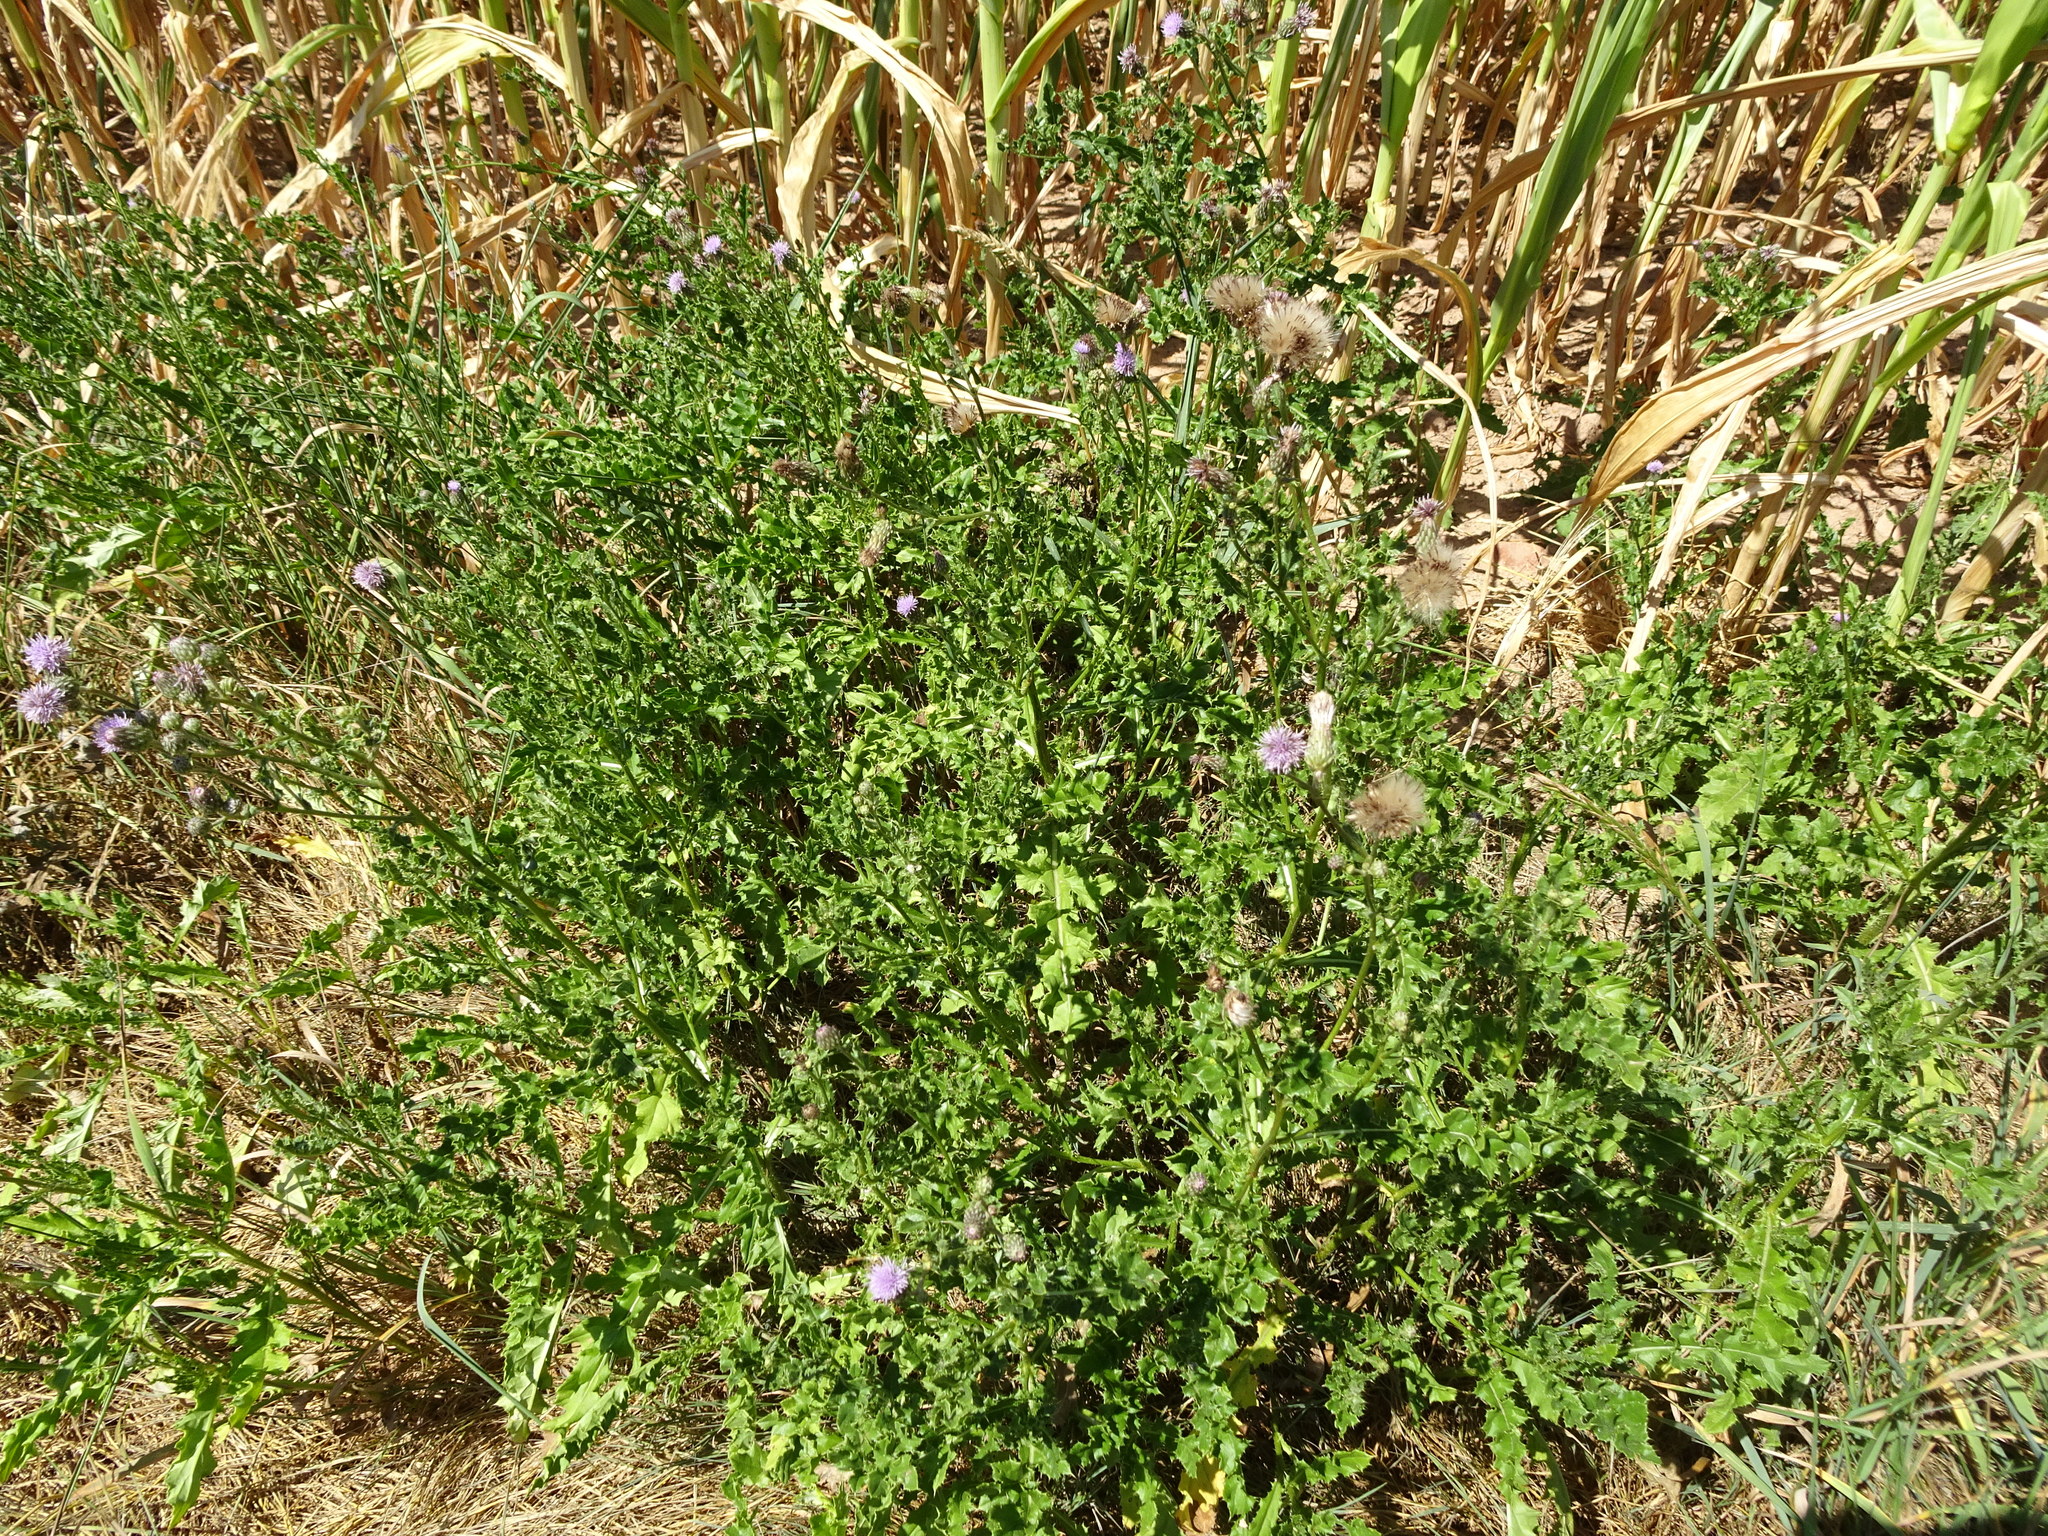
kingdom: Plantae
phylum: Tracheophyta
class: Magnoliopsida
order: Asterales
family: Asteraceae
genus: Cirsium
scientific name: Cirsium arvense
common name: Creeping thistle
